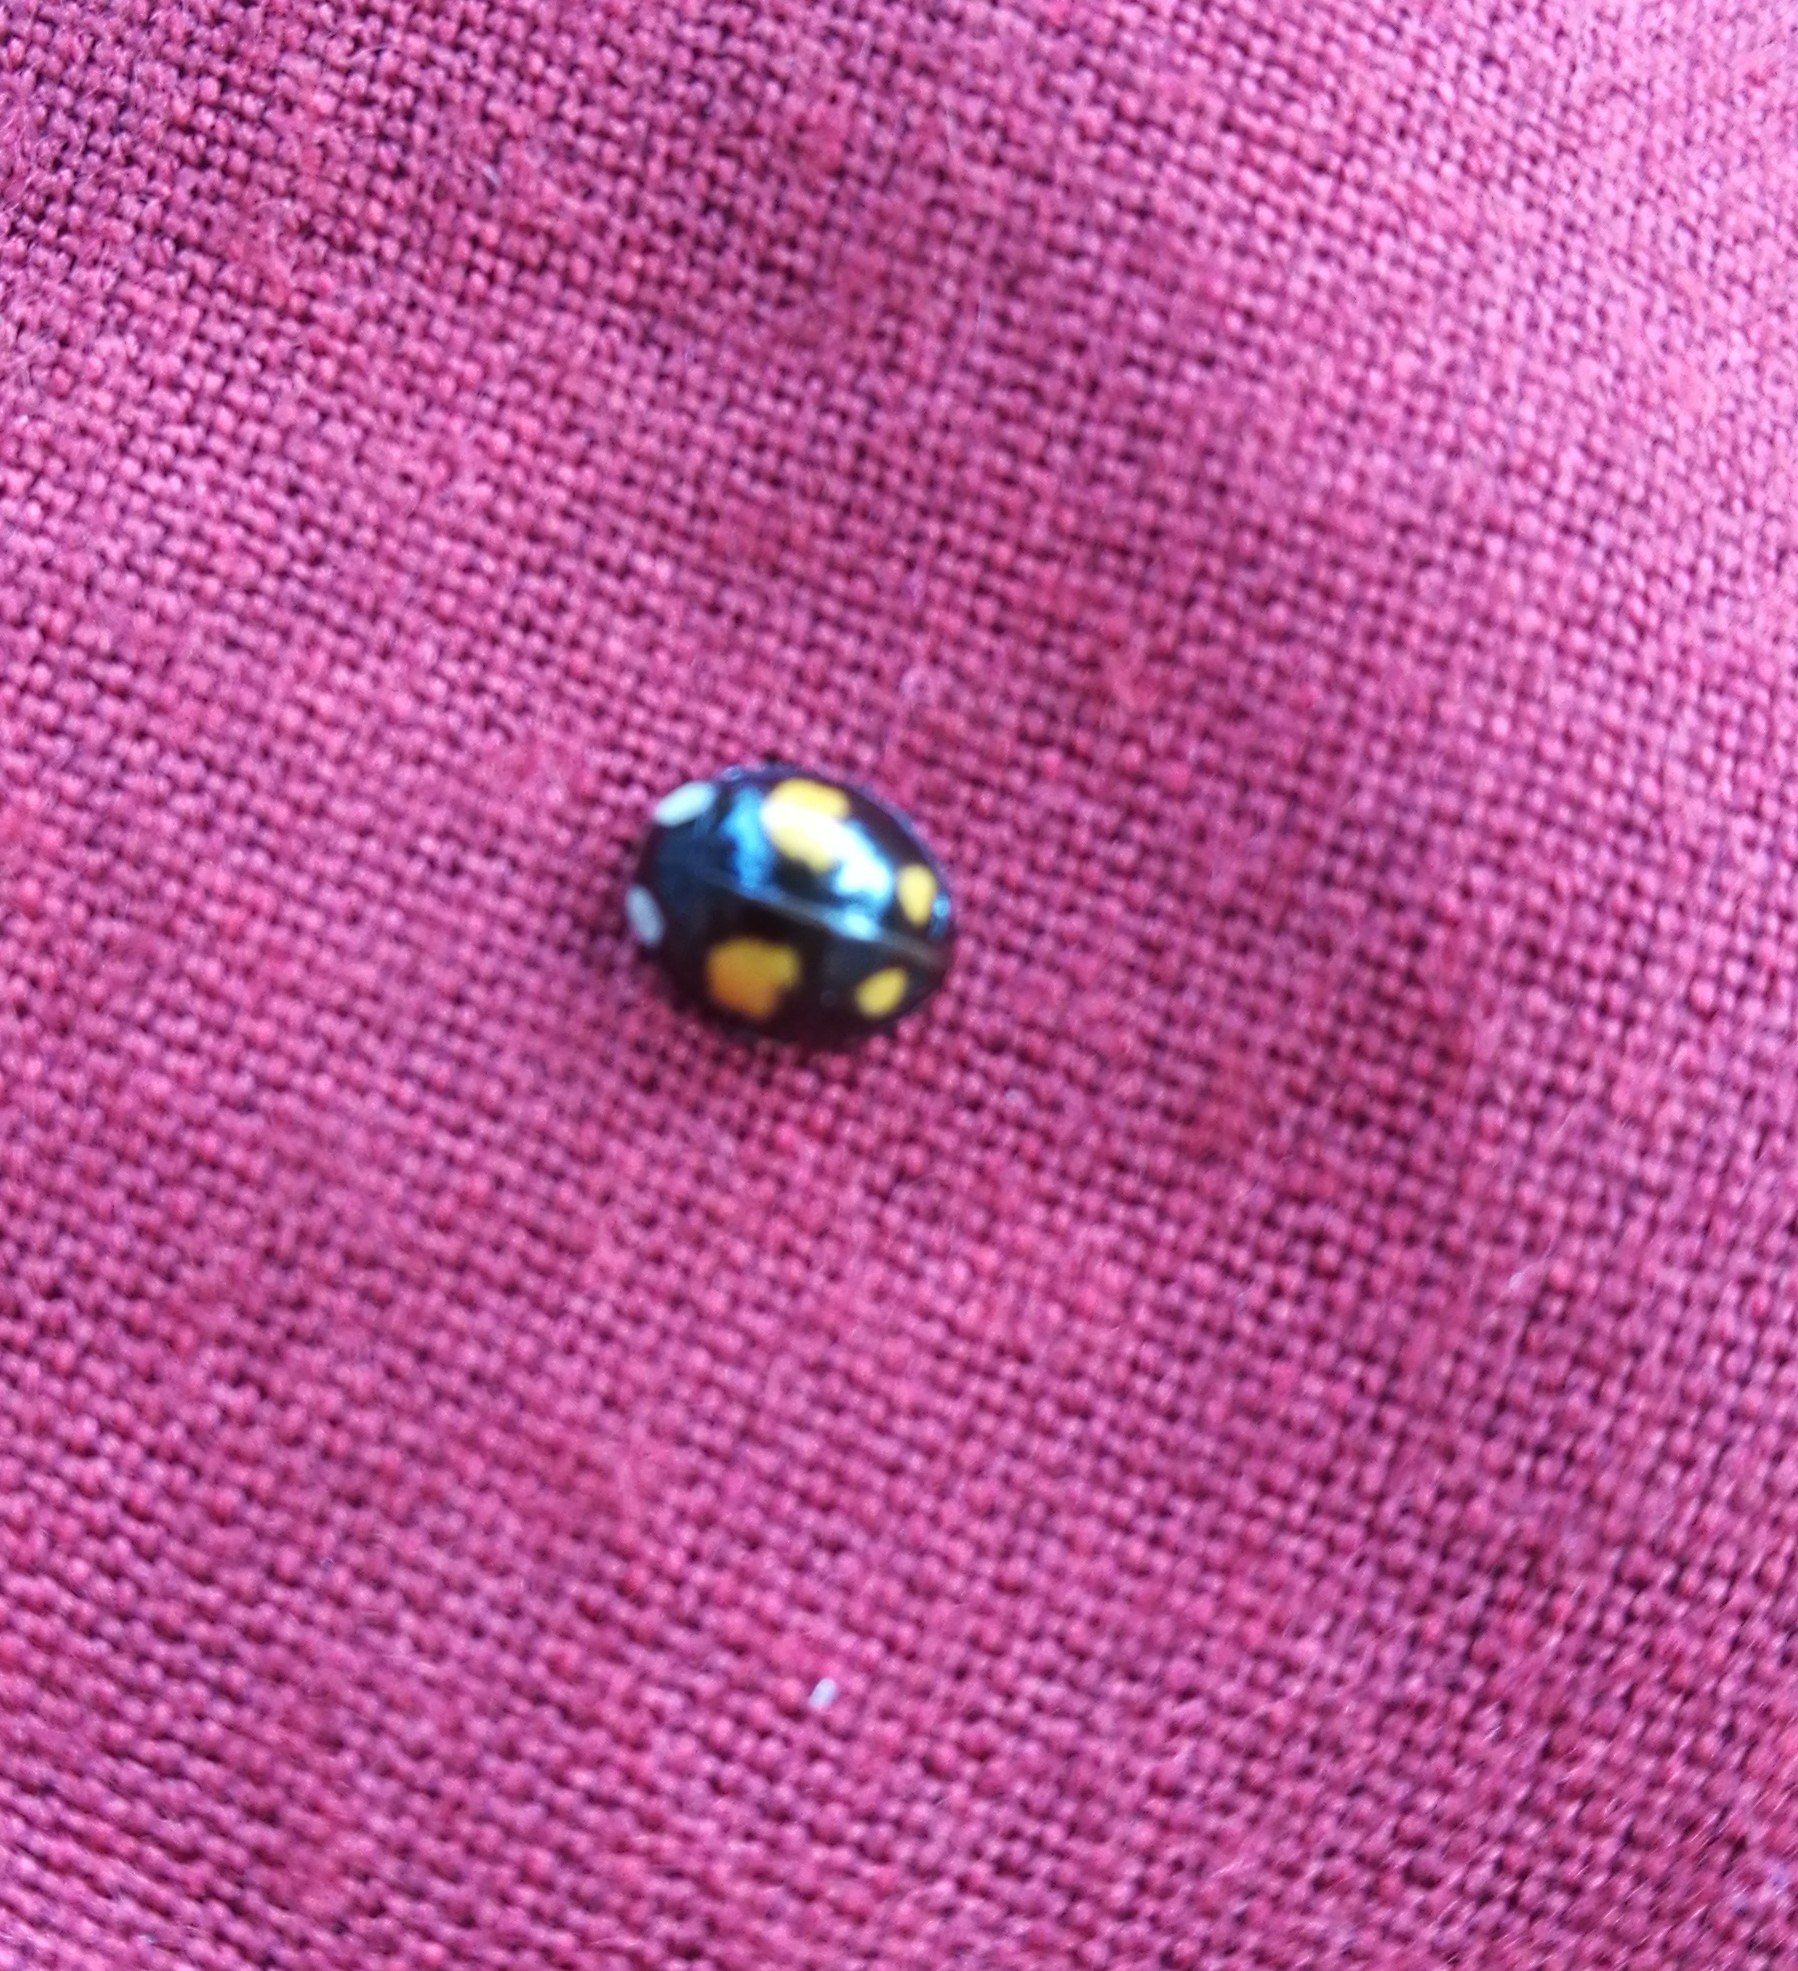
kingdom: Animalia
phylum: Arthropoda
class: Insecta
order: Coleoptera
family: Coccinellidae
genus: Harmonia
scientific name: Harmonia axyridis
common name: Harlequin ladybird
